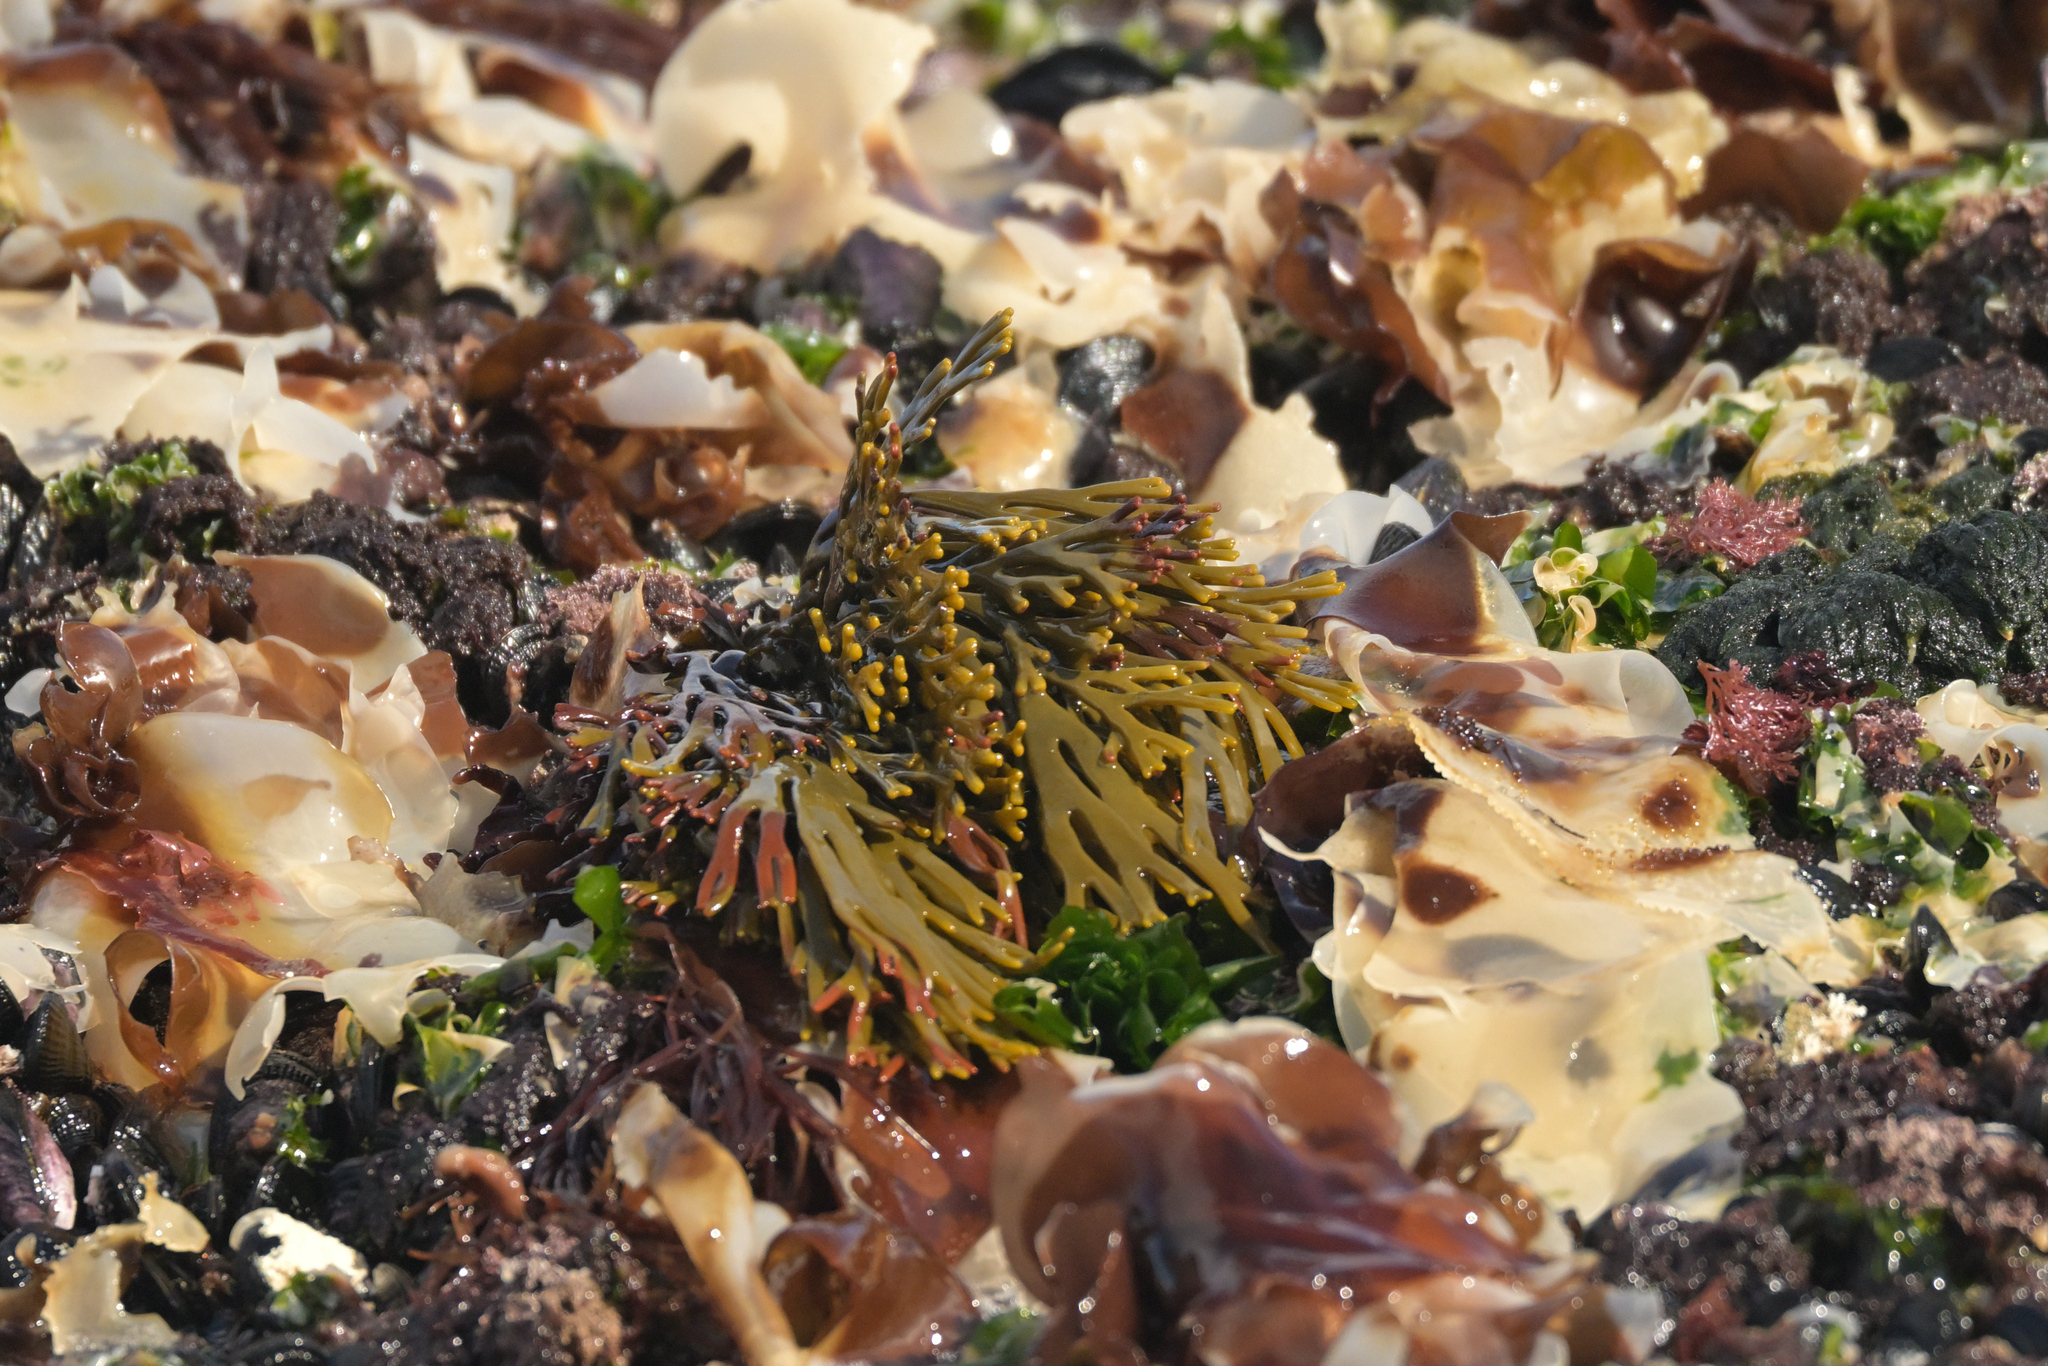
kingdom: Chromista
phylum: Ochrophyta
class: Phaeophyceae
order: Fucales
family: Xiphophoraceae
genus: Xiphophora
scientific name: Xiphophora gladiata
